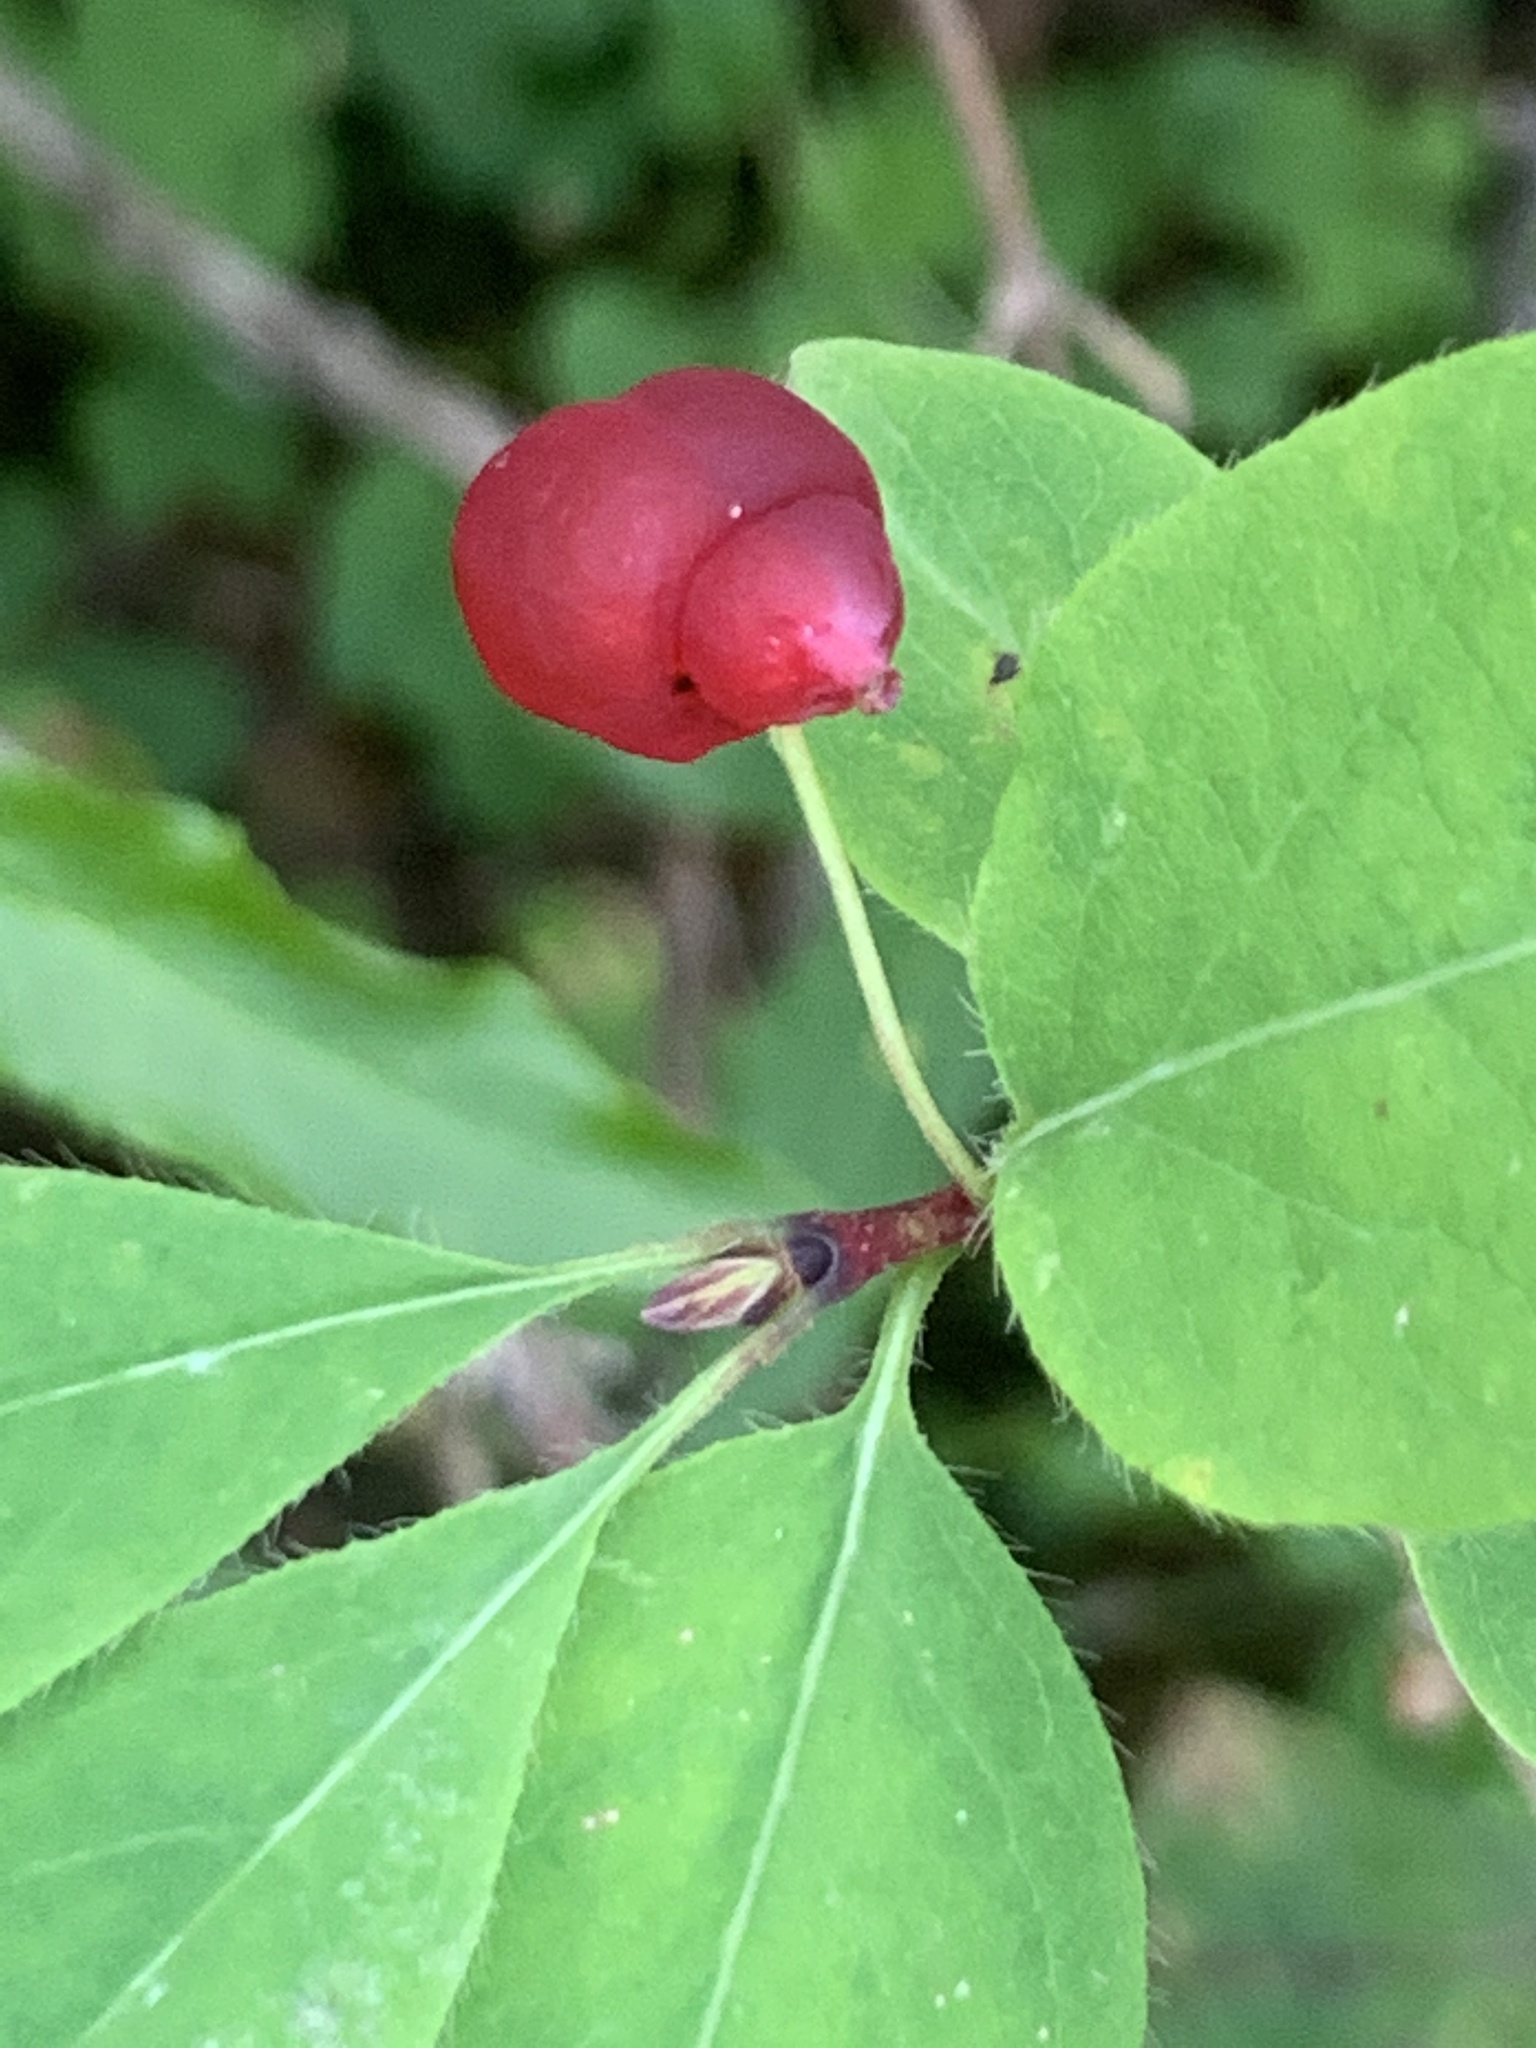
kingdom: Plantae
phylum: Tracheophyta
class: Magnoliopsida
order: Dipsacales
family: Caprifoliaceae
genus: Lonicera
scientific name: Lonicera utahensis
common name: Utah honeysuckle
